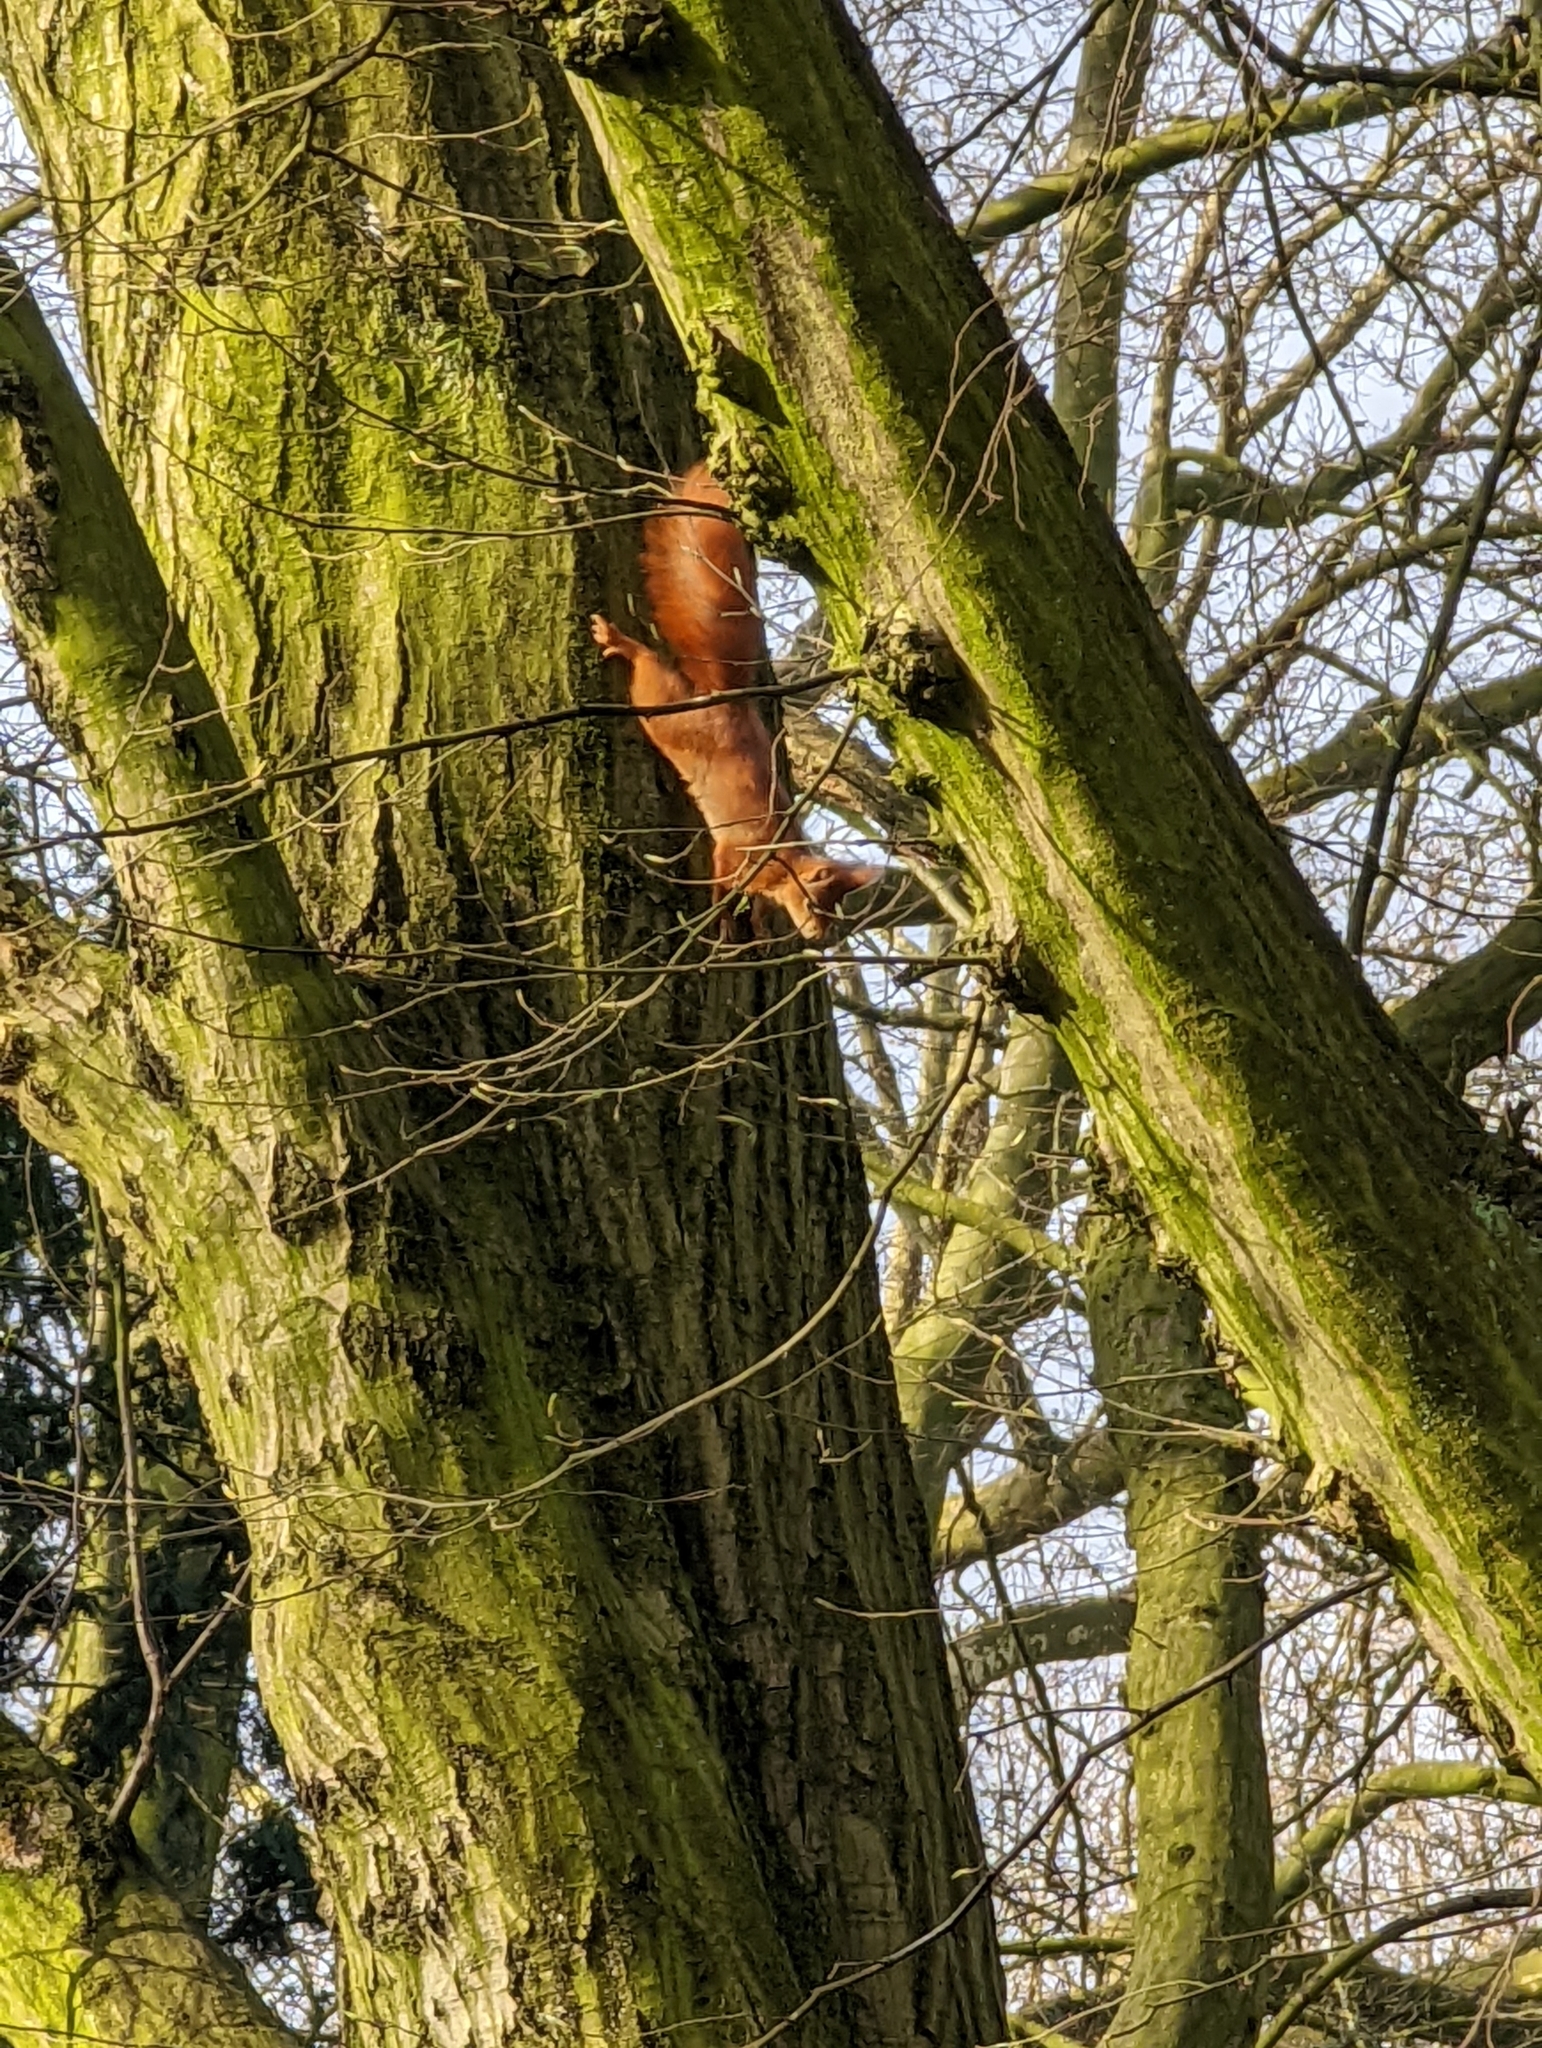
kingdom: Animalia
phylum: Chordata
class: Mammalia
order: Rodentia
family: Sciuridae
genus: Sciurus
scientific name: Sciurus vulgaris
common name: Eurasian red squirrel
